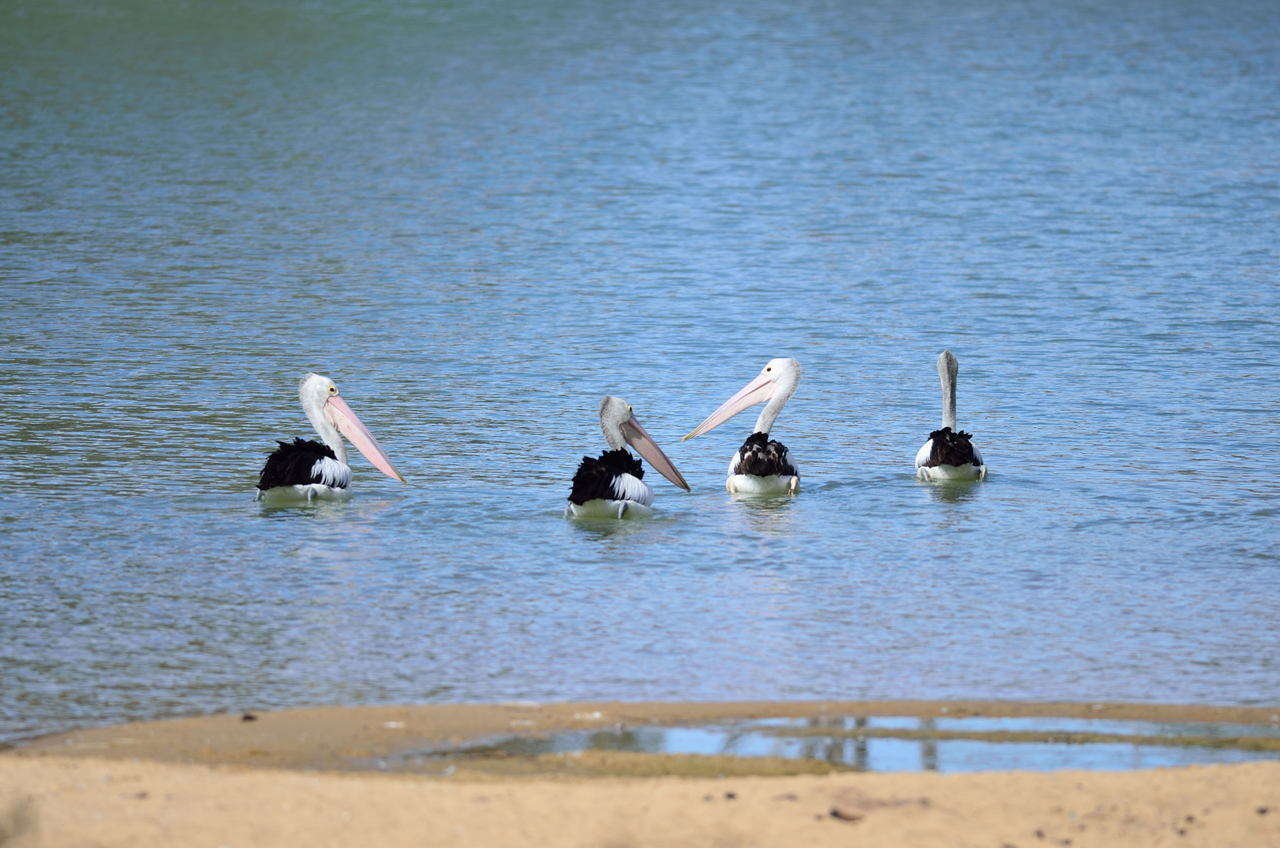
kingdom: Animalia
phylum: Chordata
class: Aves
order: Pelecaniformes
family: Pelecanidae
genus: Pelecanus
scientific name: Pelecanus conspicillatus
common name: Australian pelican
